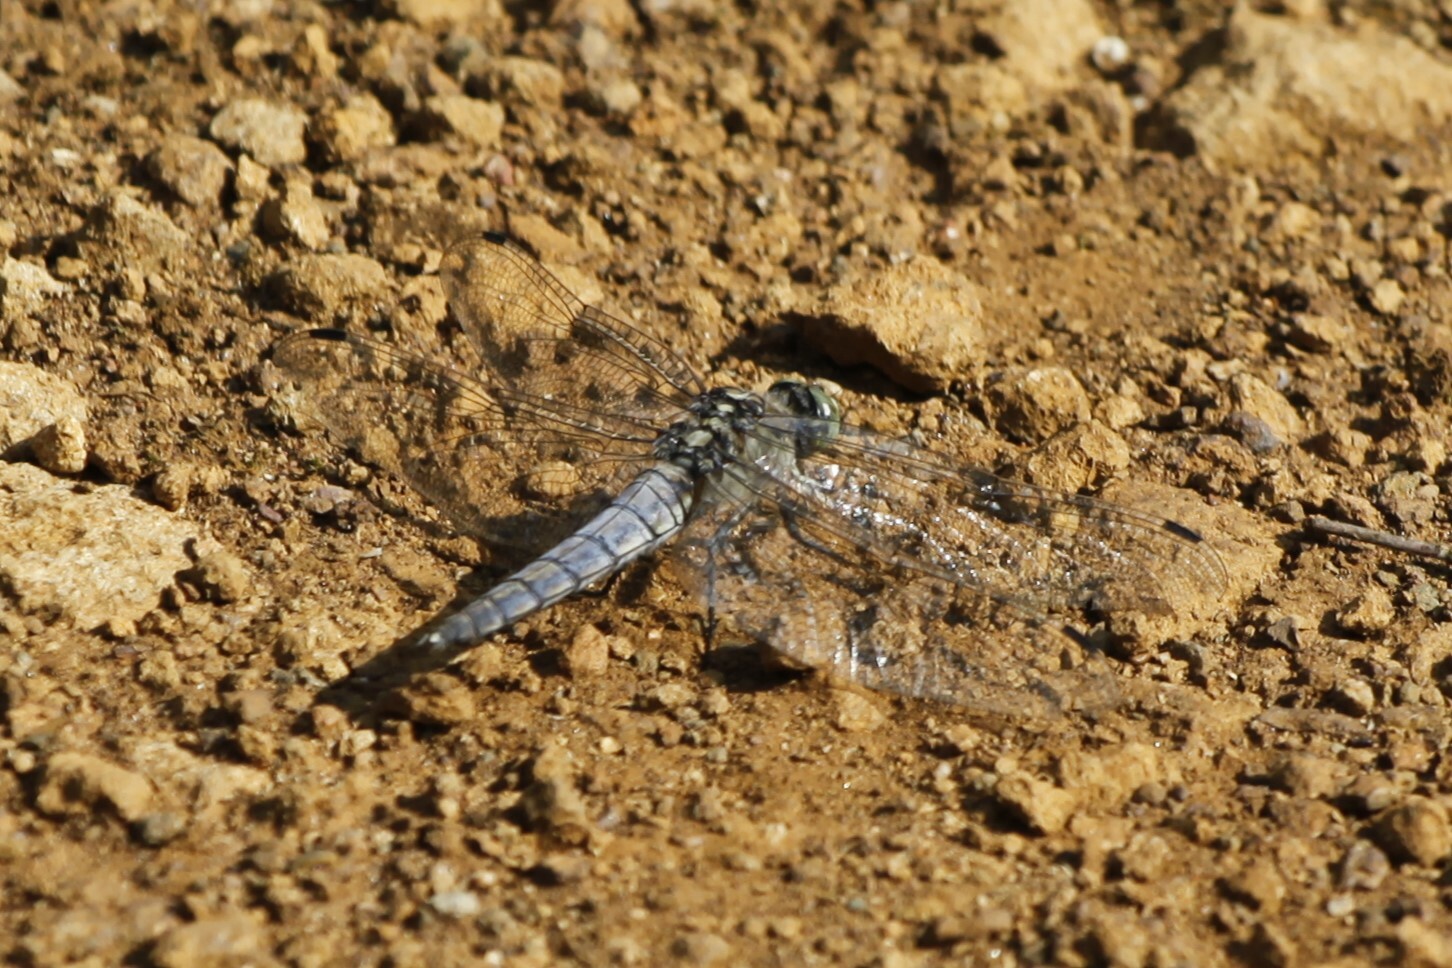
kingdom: Animalia
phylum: Arthropoda
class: Insecta
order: Odonata
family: Libellulidae
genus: Orthetrum
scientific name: Orthetrum cancellatum
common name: Black-tailed skimmer
